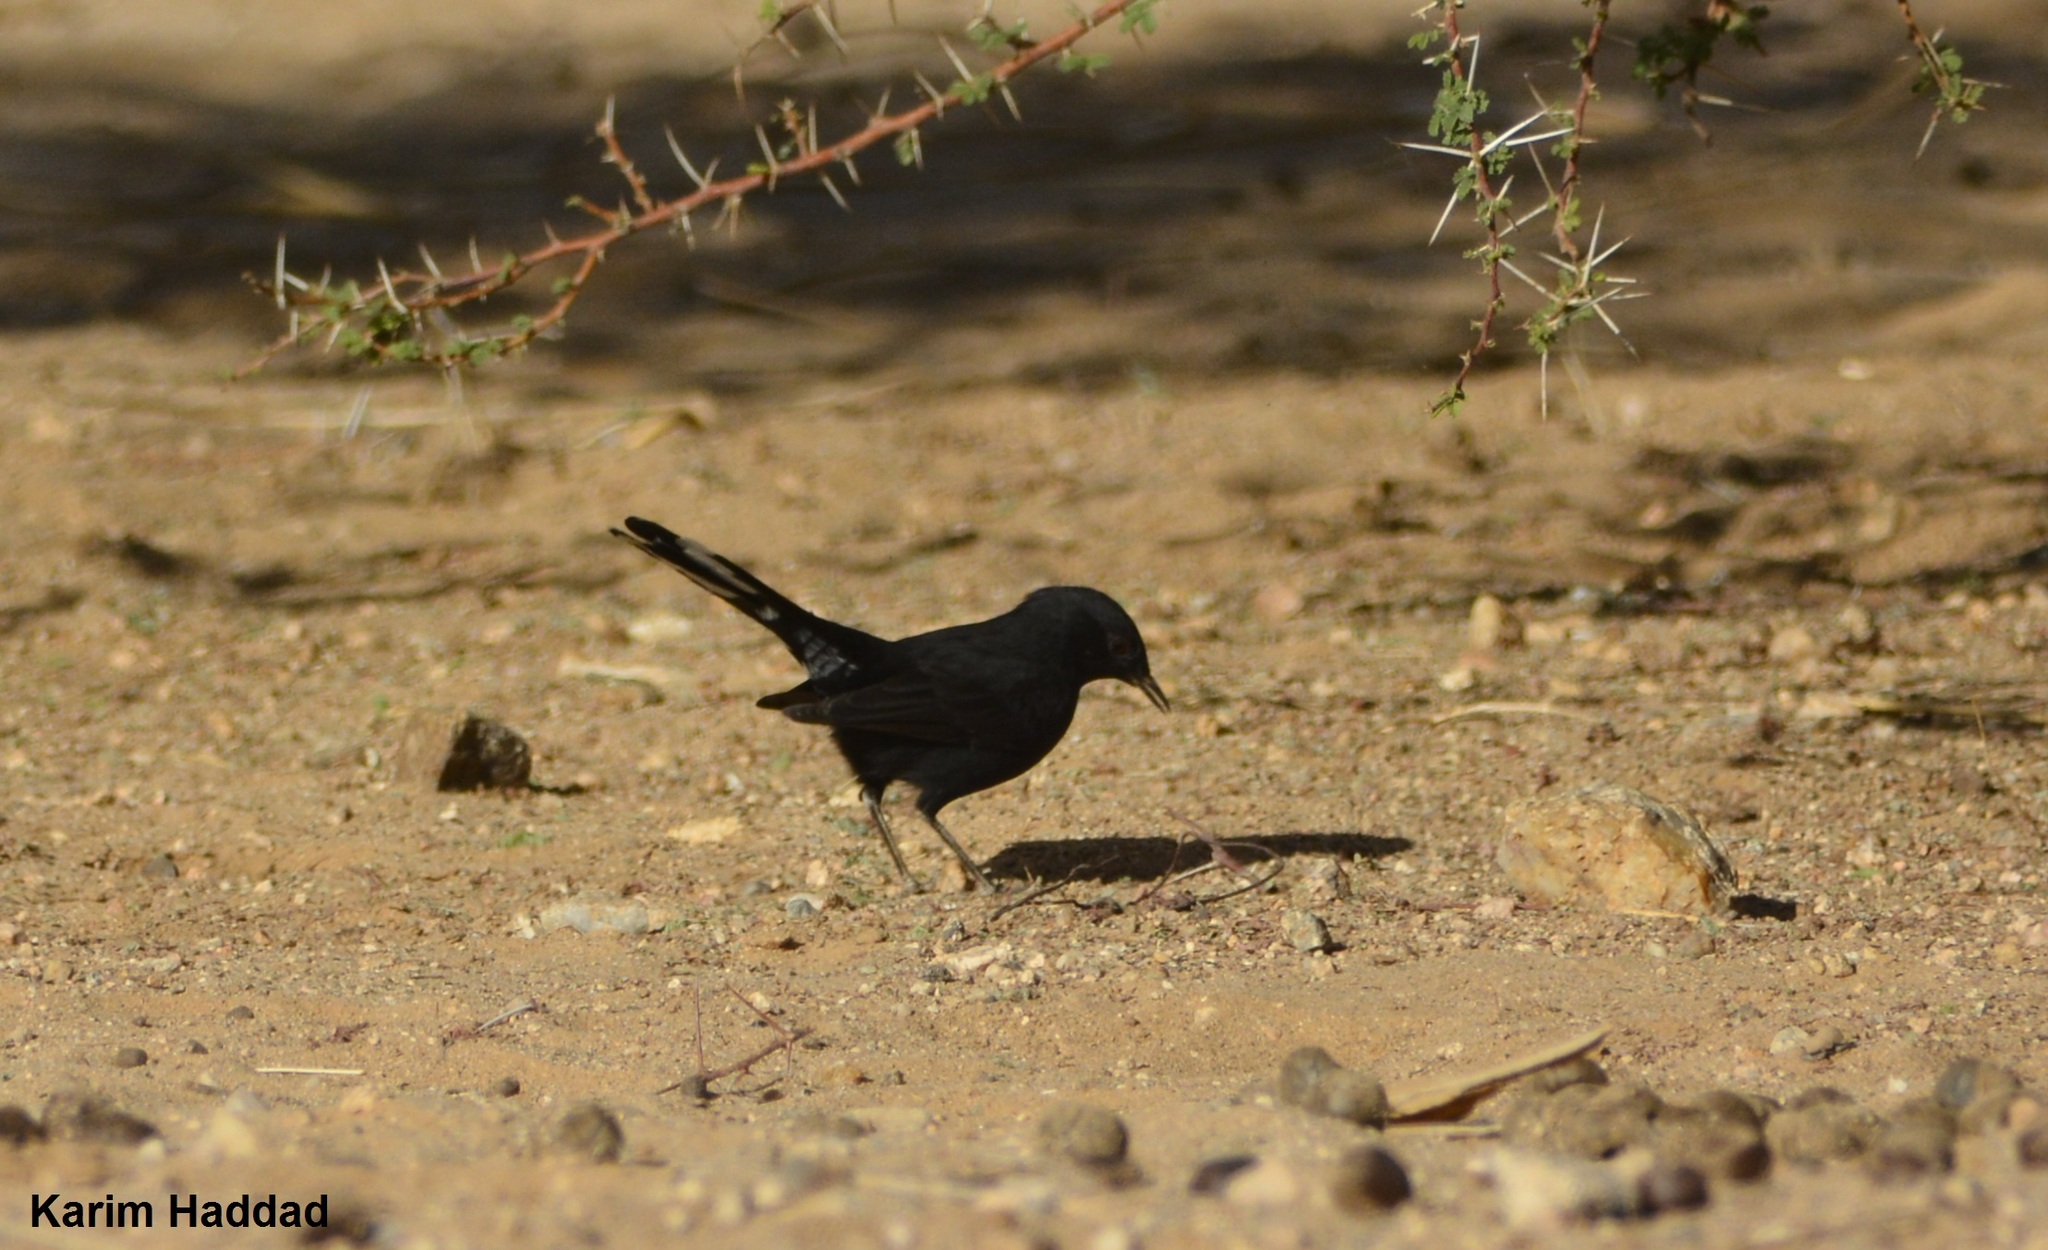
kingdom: Animalia
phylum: Chordata
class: Aves
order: Passeriformes
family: Muscicapidae
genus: Cercotrichas
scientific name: Cercotrichas podobe
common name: Black scrub robin
